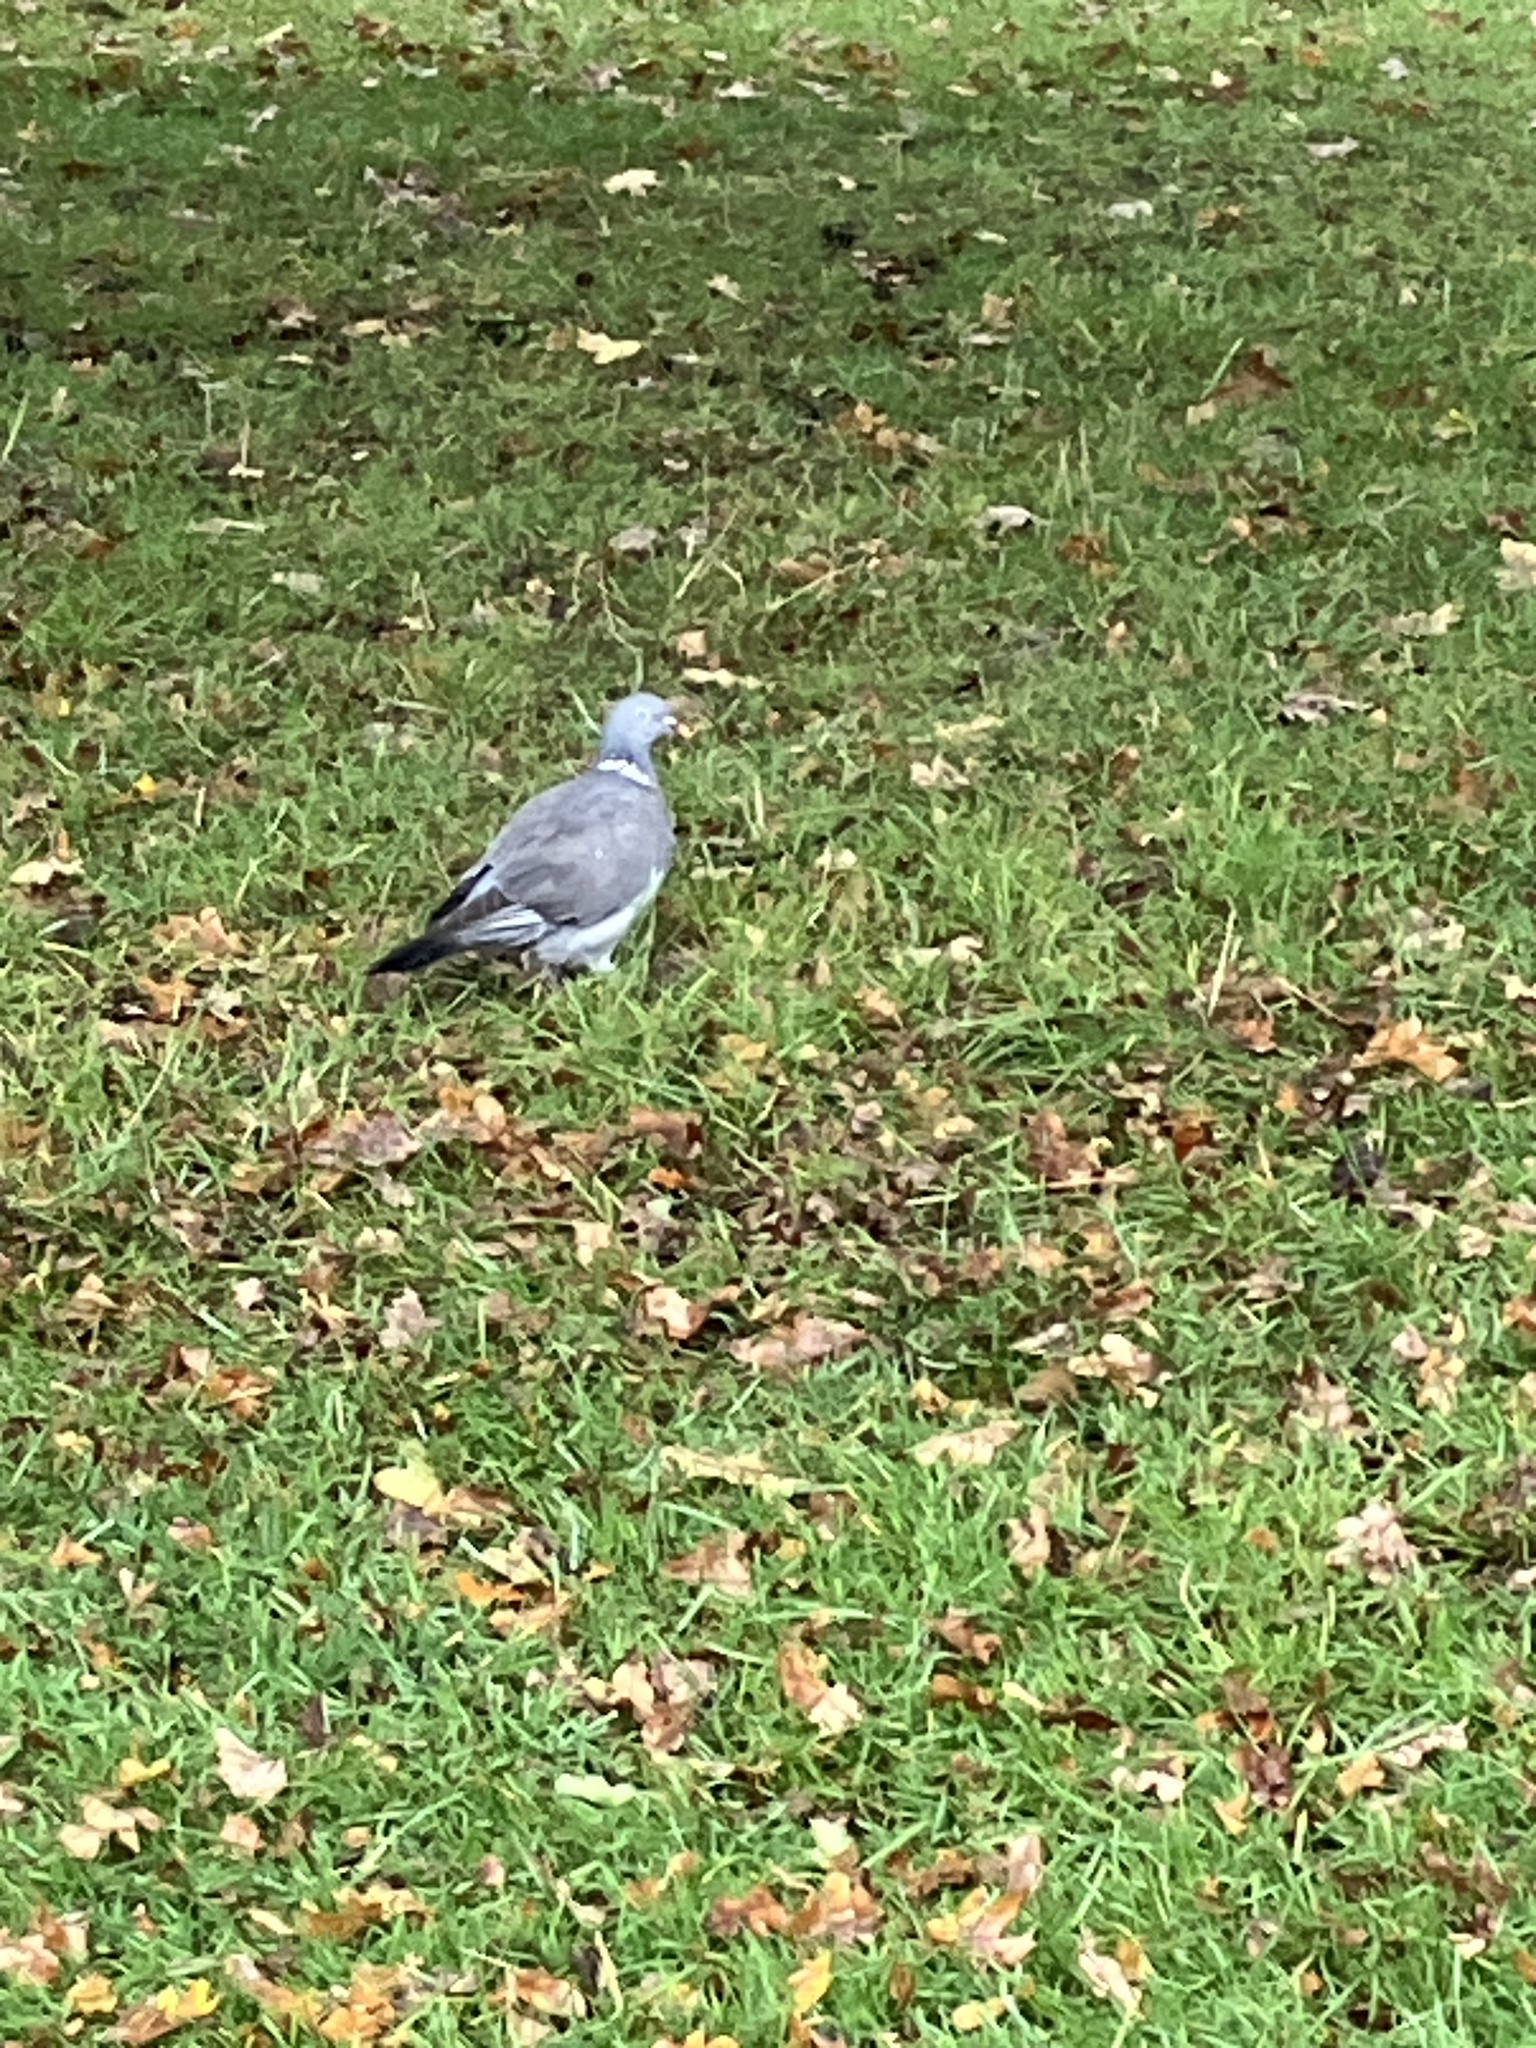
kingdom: Animalia
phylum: Chordata
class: Aves
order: Columbiformes
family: Columbidae
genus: Columba
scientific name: Columba palumbus
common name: Common wood pigeon
